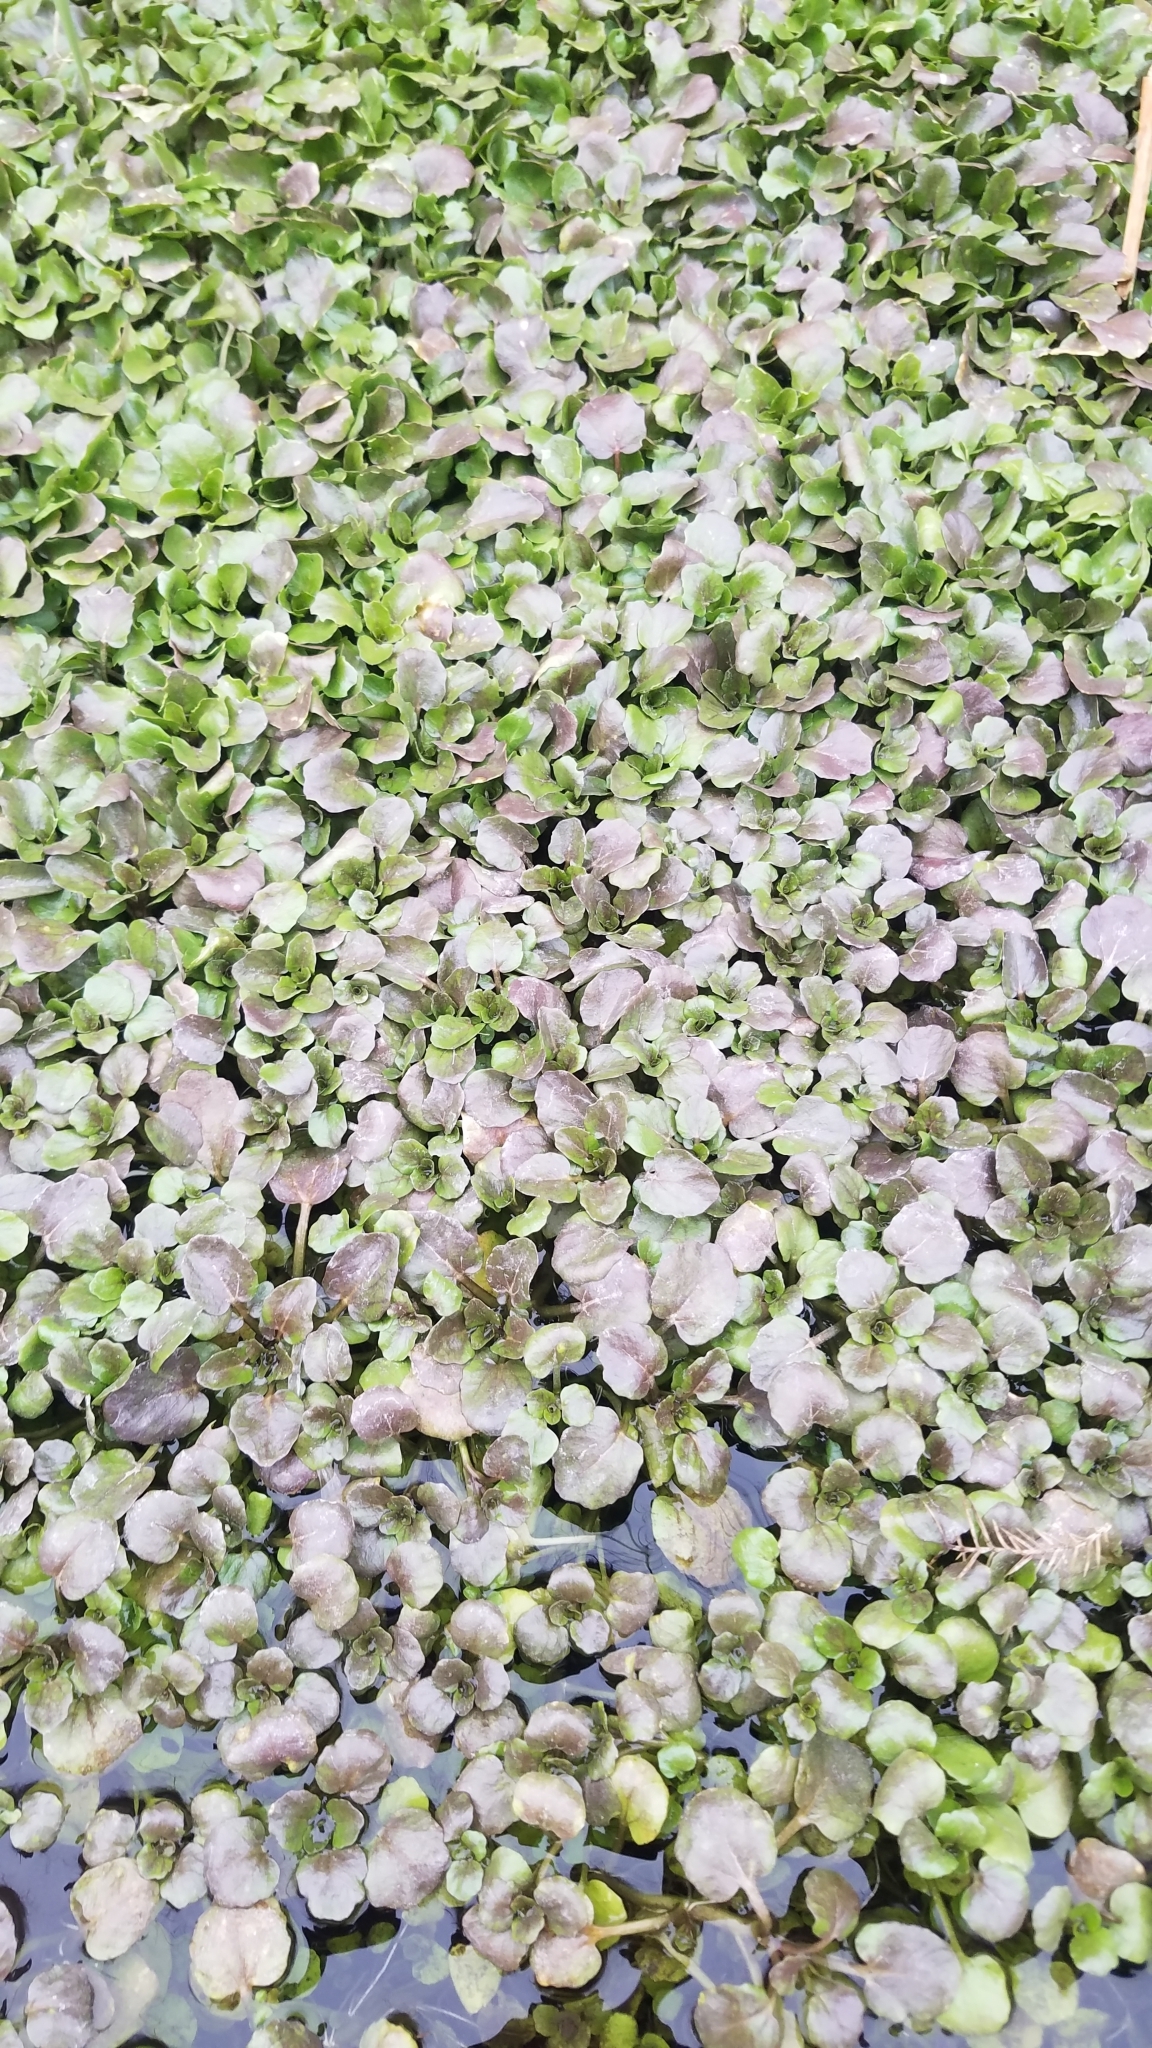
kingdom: Plantae
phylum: Tracheophyta
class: Magnoliopsida
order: Brassicales
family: Brassicaceae
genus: Nasturtium
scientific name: Nasturtium officinale
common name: Watercress
